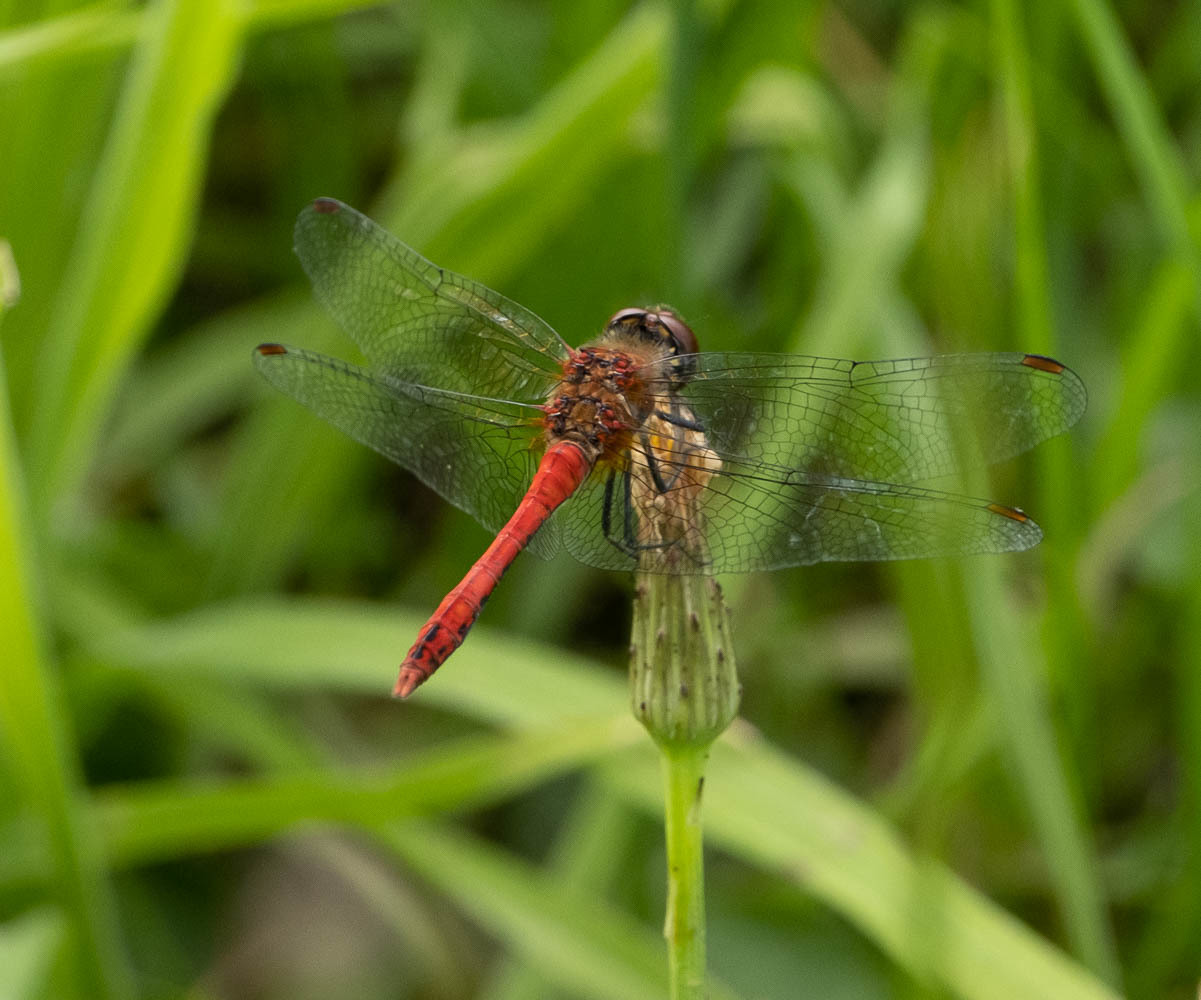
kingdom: Animalia
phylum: Arthropoda
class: Insecta
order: Odonata
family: Libellulidae
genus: Sympetrum
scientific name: Sympetrum sanguineum
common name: Ruddy darter
